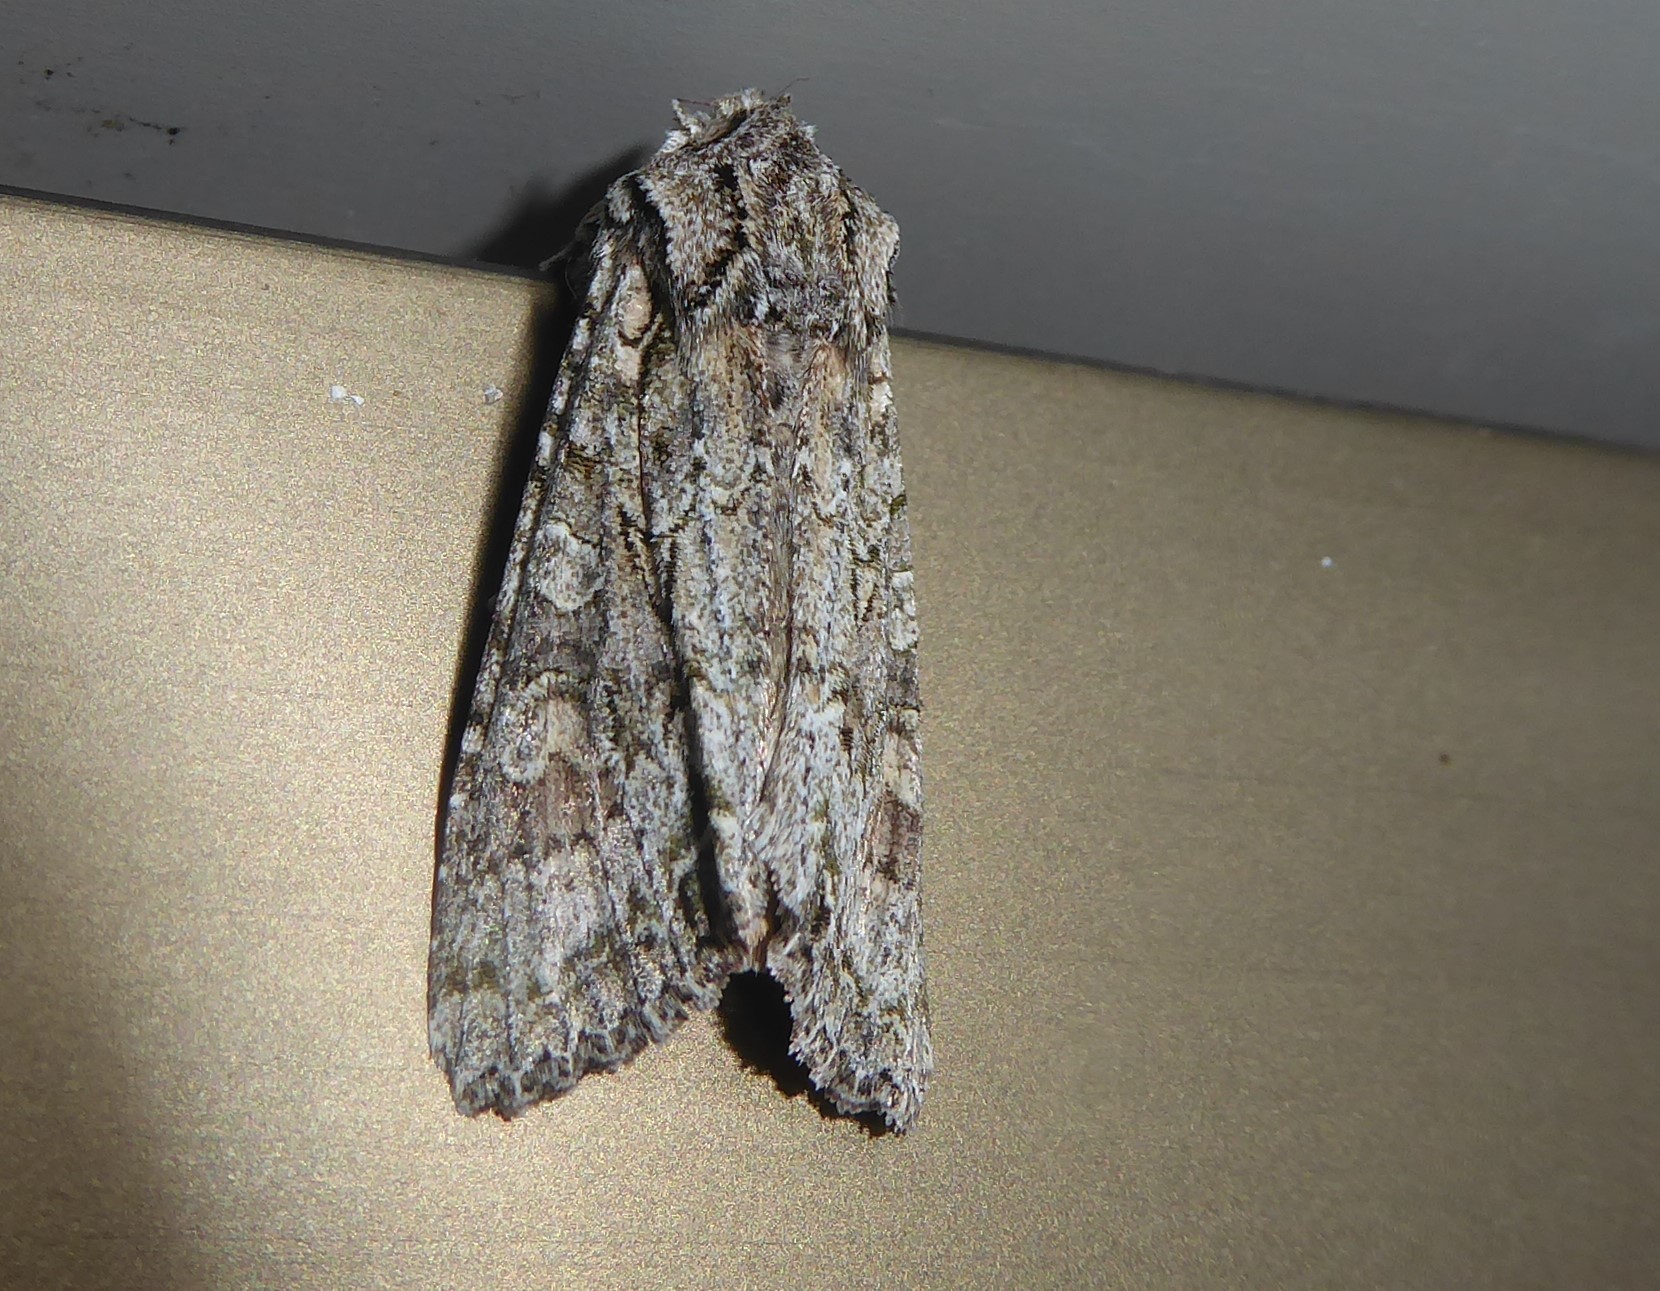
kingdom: Animalia
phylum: Arthropoda
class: Insecta
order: Lepidoptera
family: Noctuidae
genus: Ichneutica
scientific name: Ichneutica mutans
